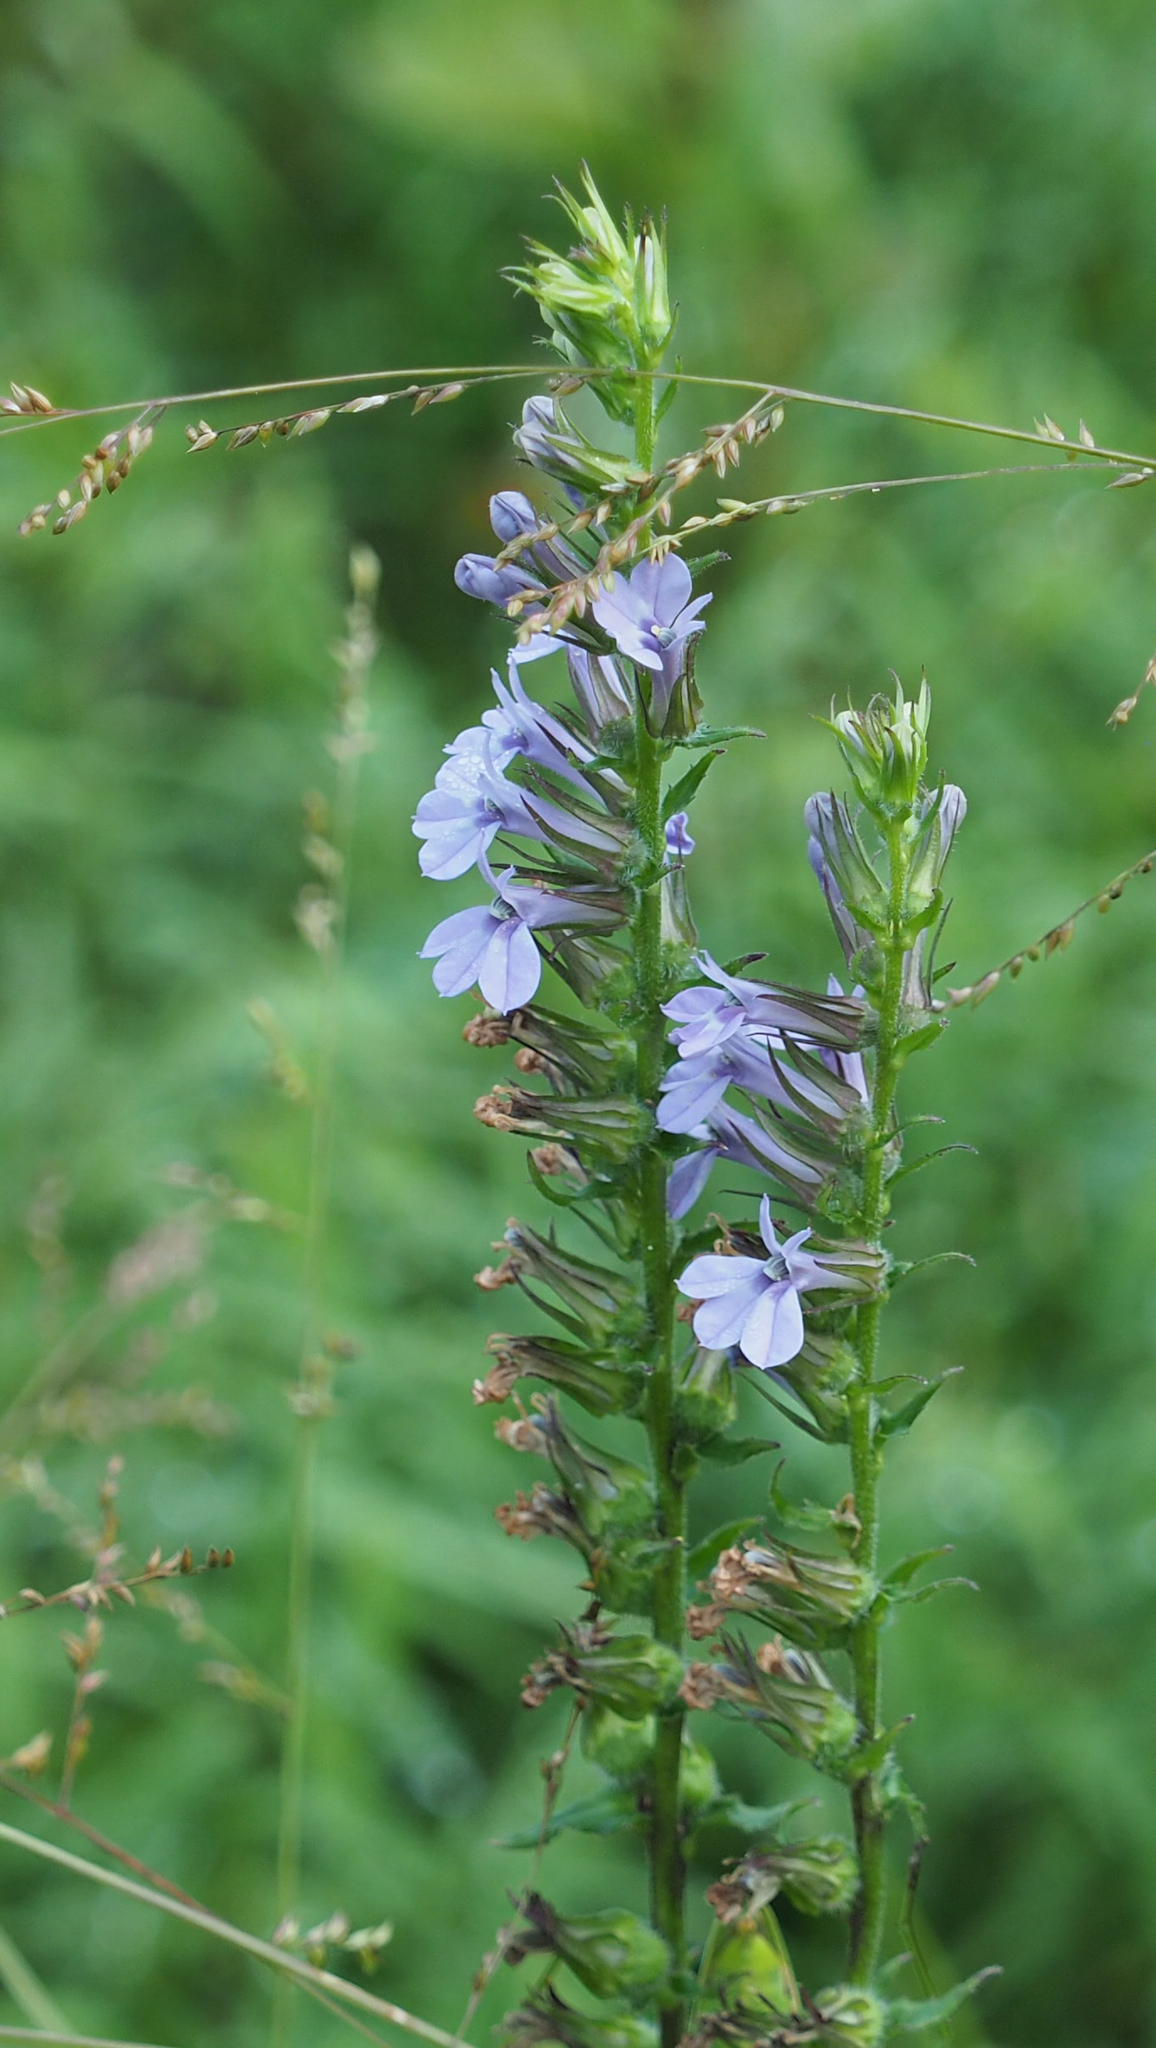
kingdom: Plantae
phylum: Tracheophyta
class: Magnoliopsida
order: Asterales
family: Campanulaceae
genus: Lobelia
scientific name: Lobelia puberula
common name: Purple dewdrop
